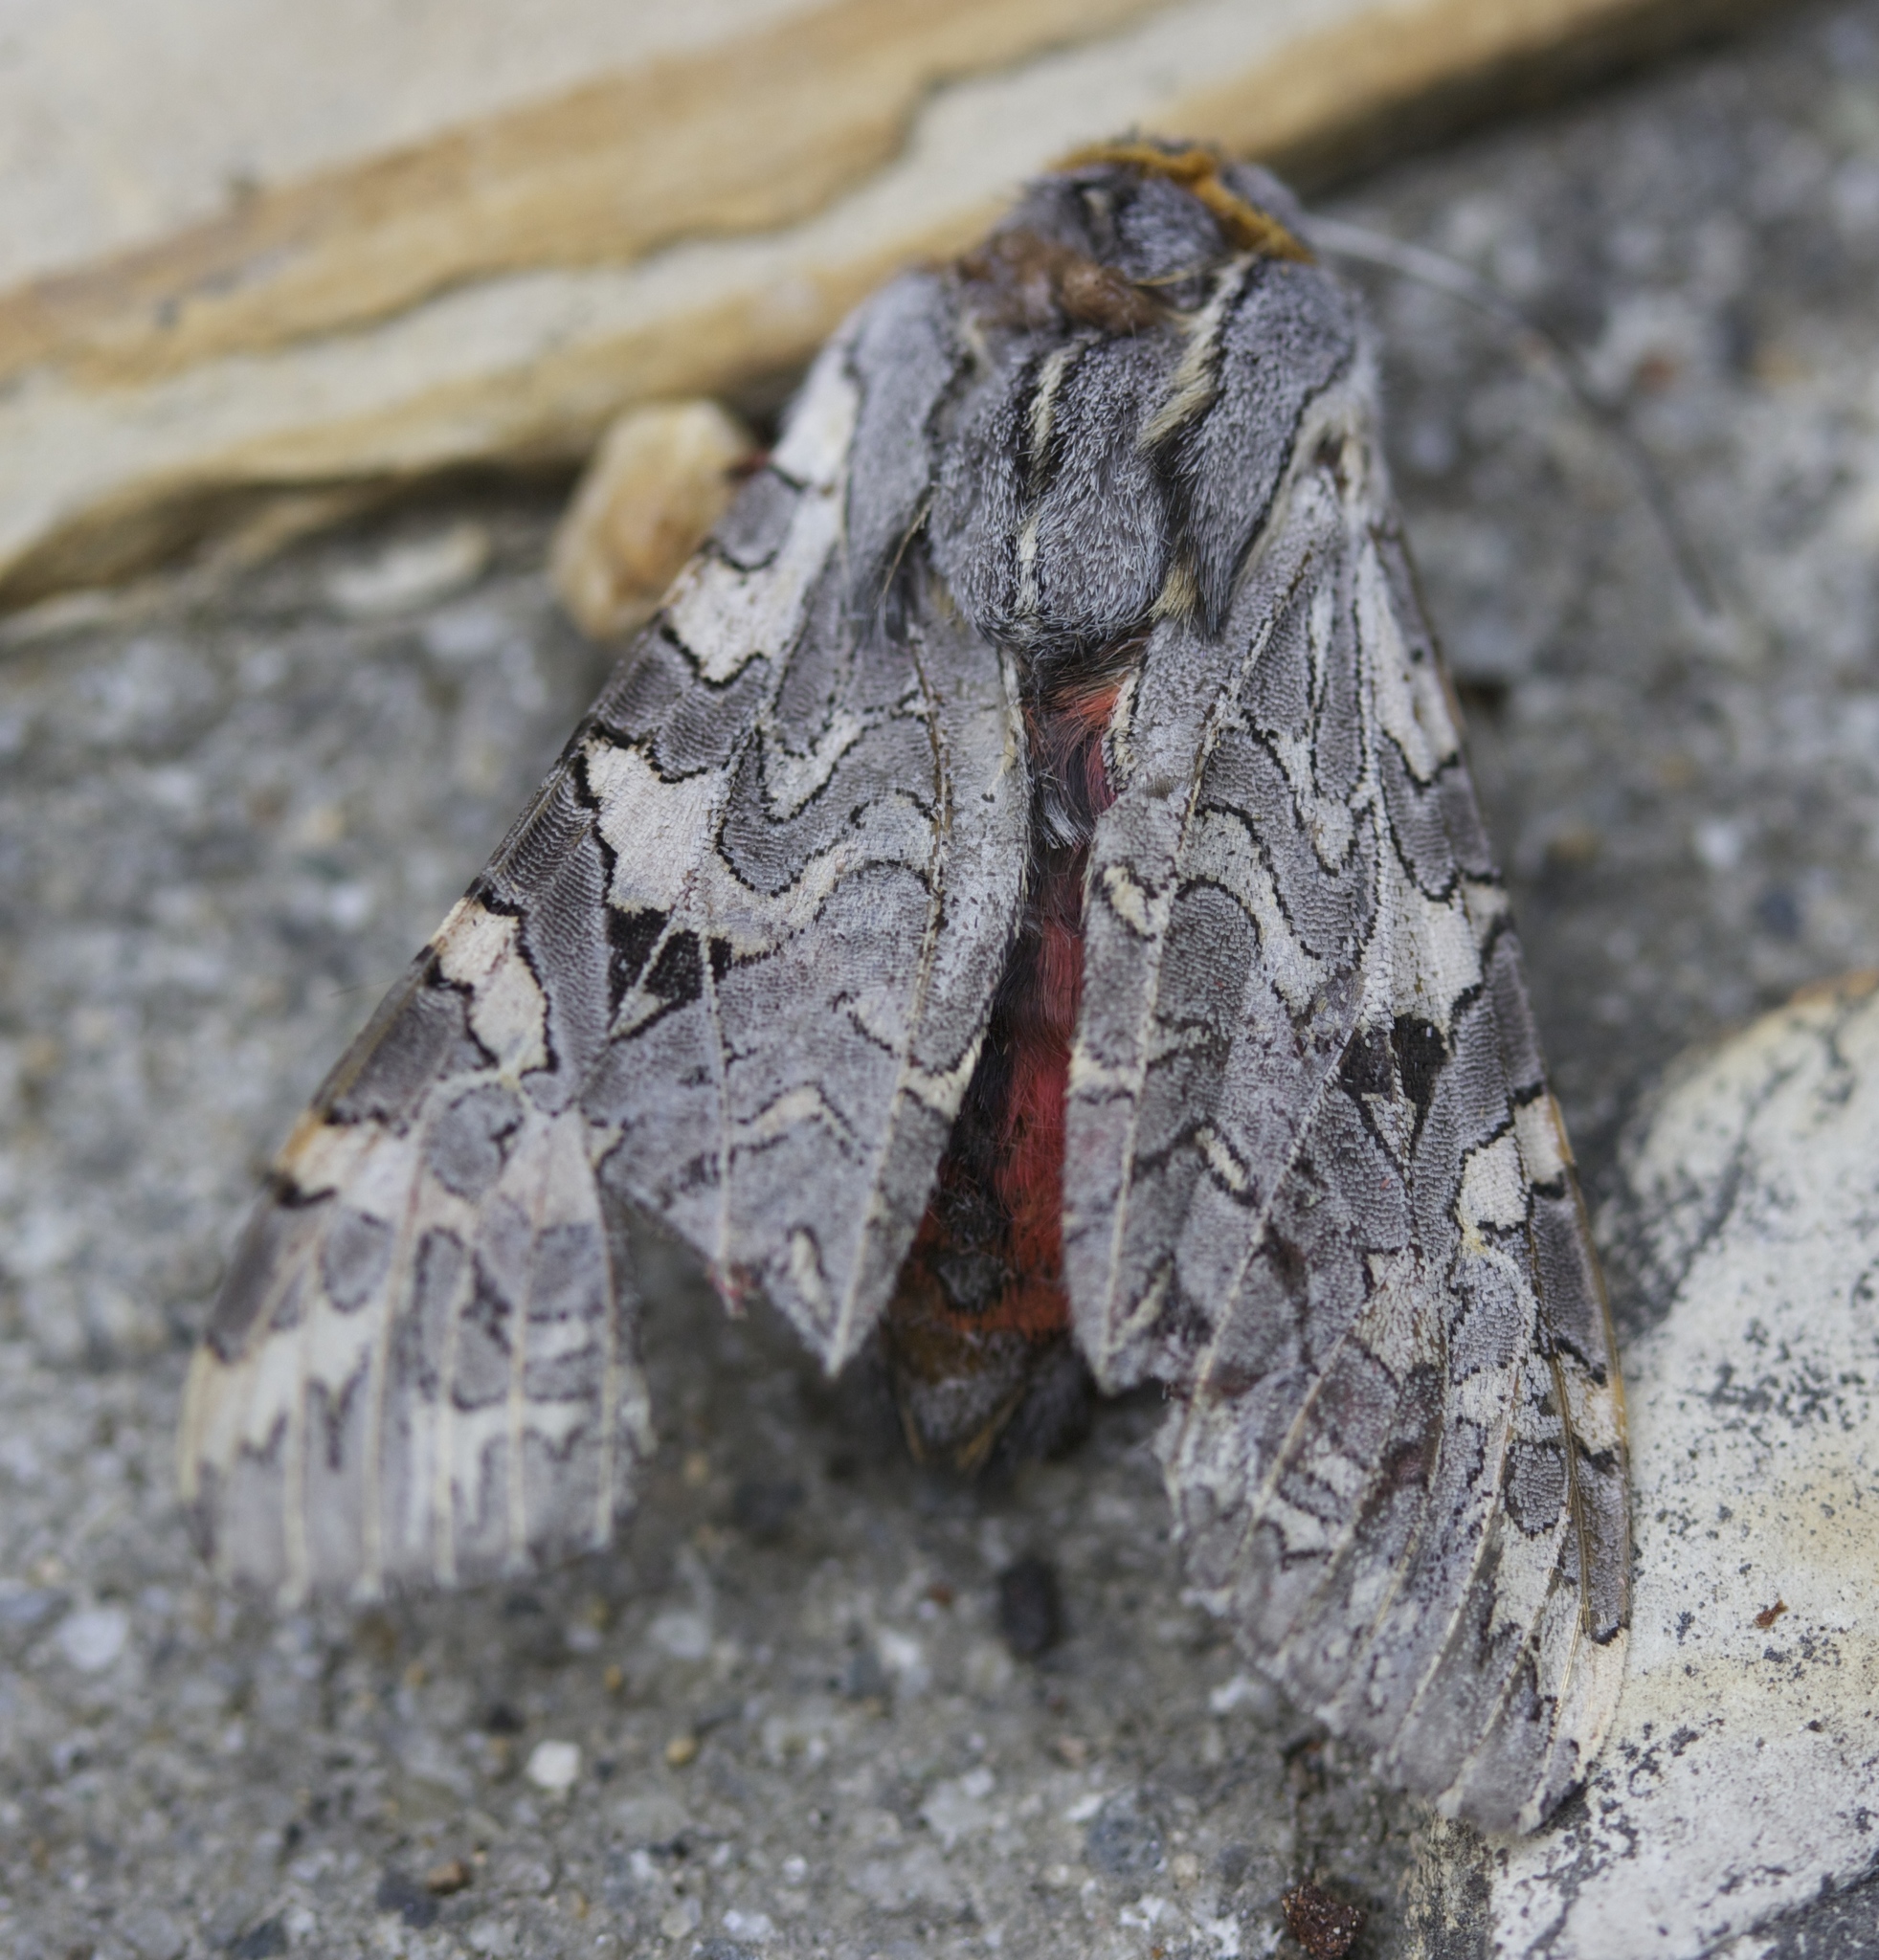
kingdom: Animalia
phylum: Arthropoda
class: Insecta
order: Lepidoptera
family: Erebidae
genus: Arachnis
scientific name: Arachnis picta
